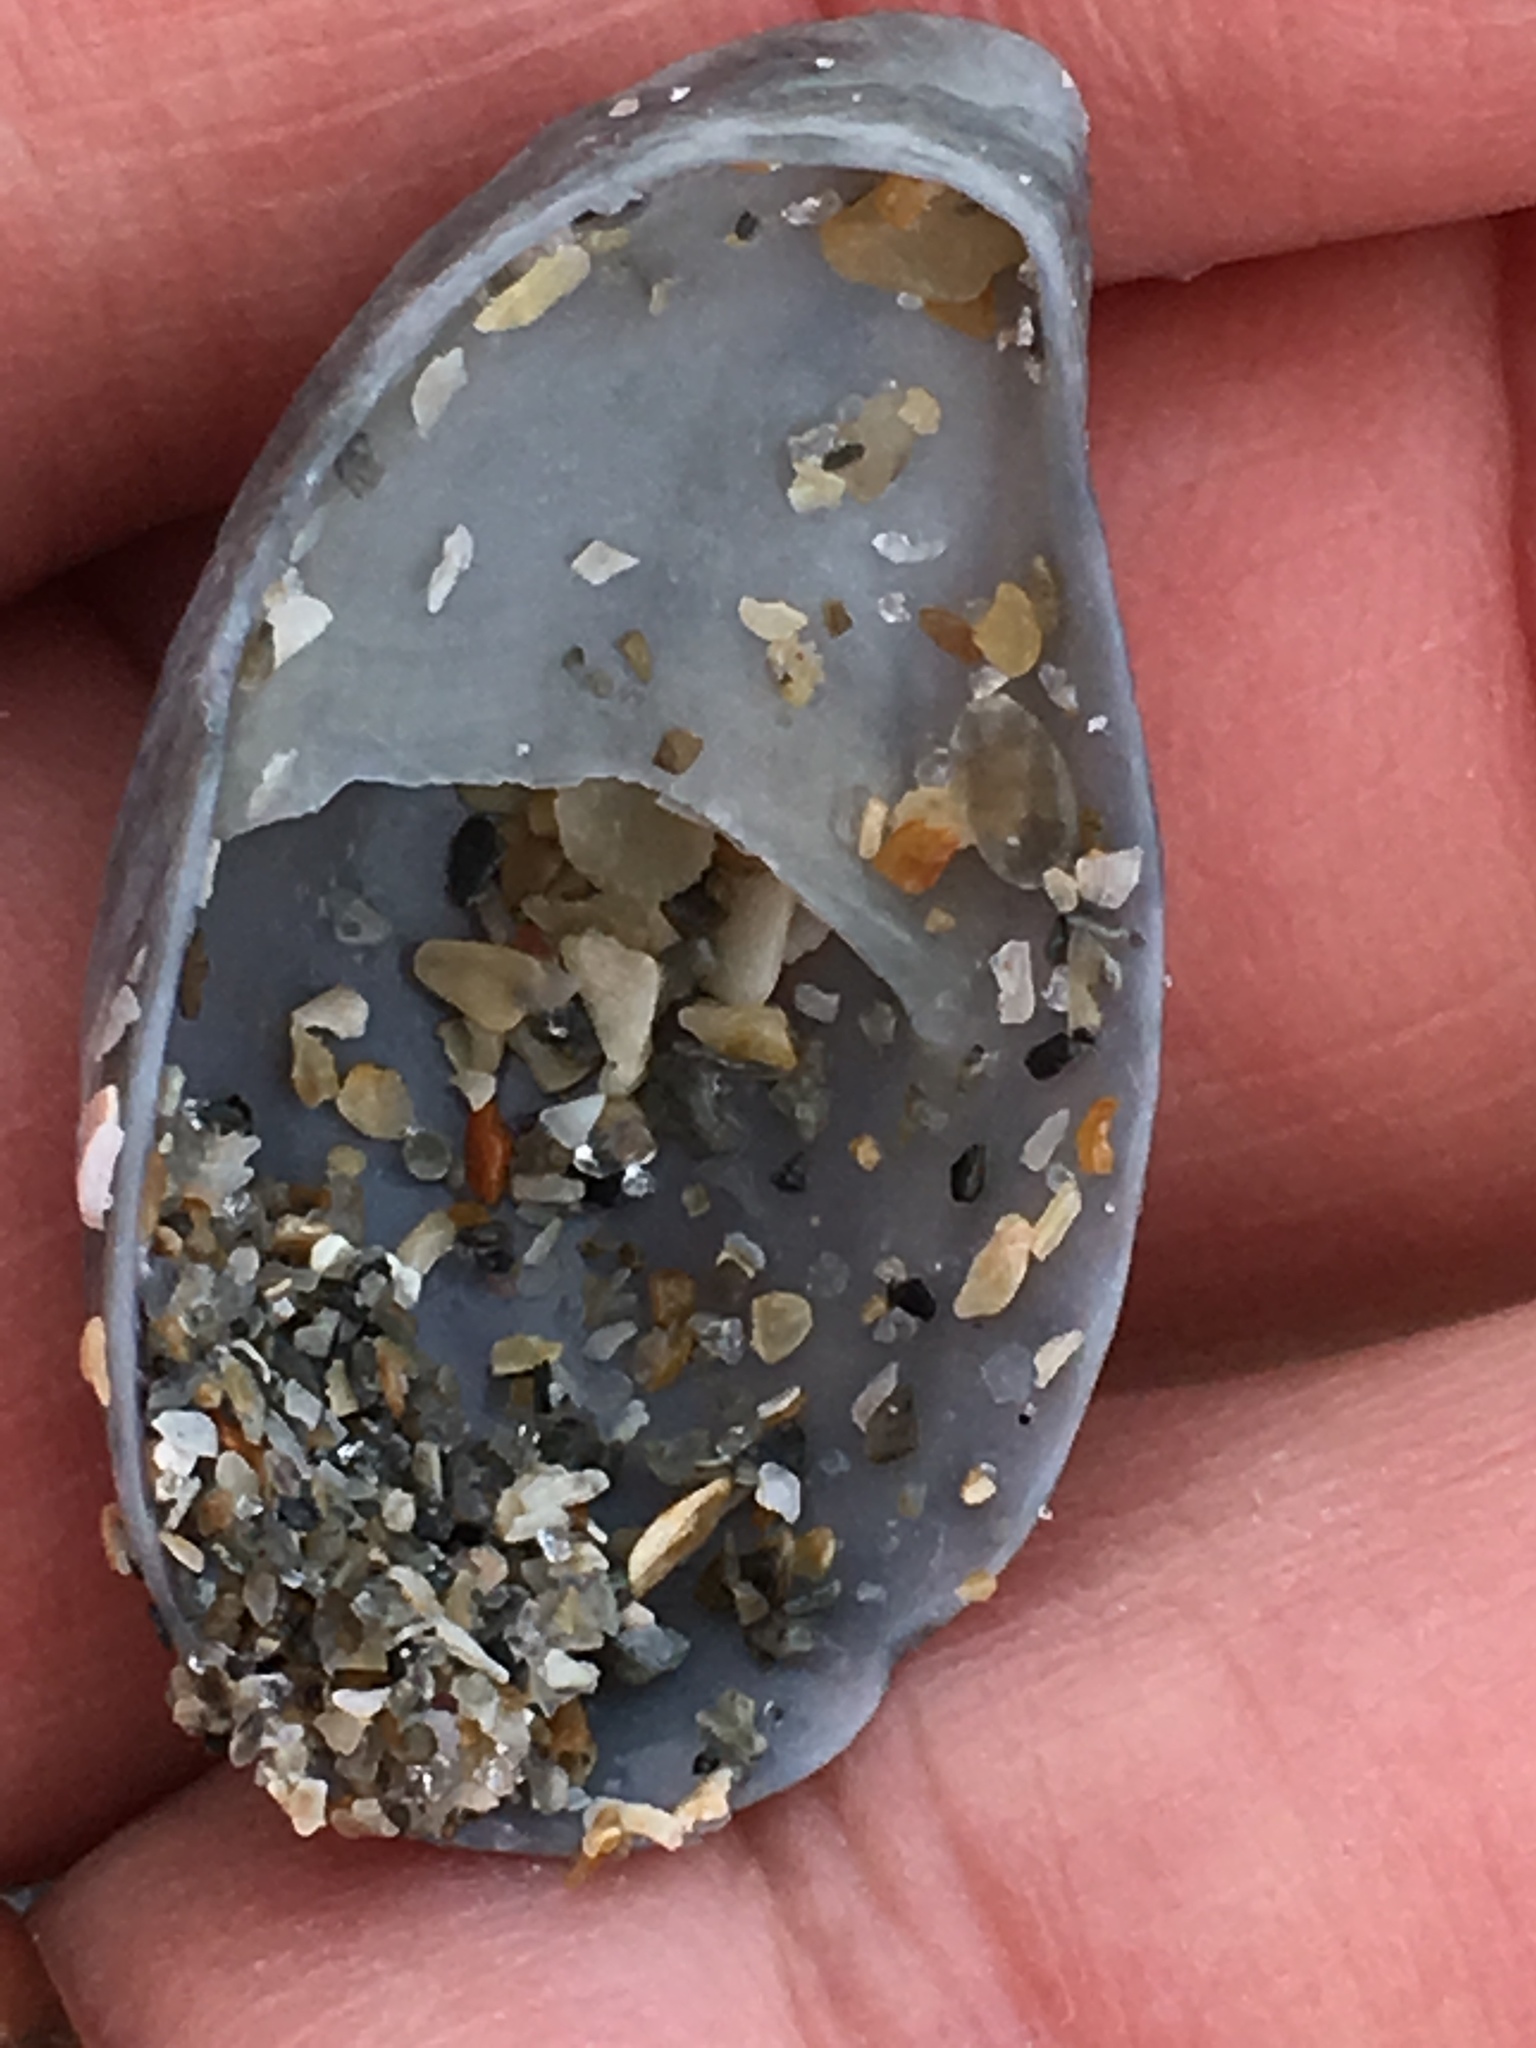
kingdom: Animalia
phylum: Mollusca
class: Gastropoda
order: Littorinimorpha
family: Calyptraeidae
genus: Crepidula
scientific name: Crepidula fornicata
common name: Slipper limpet
